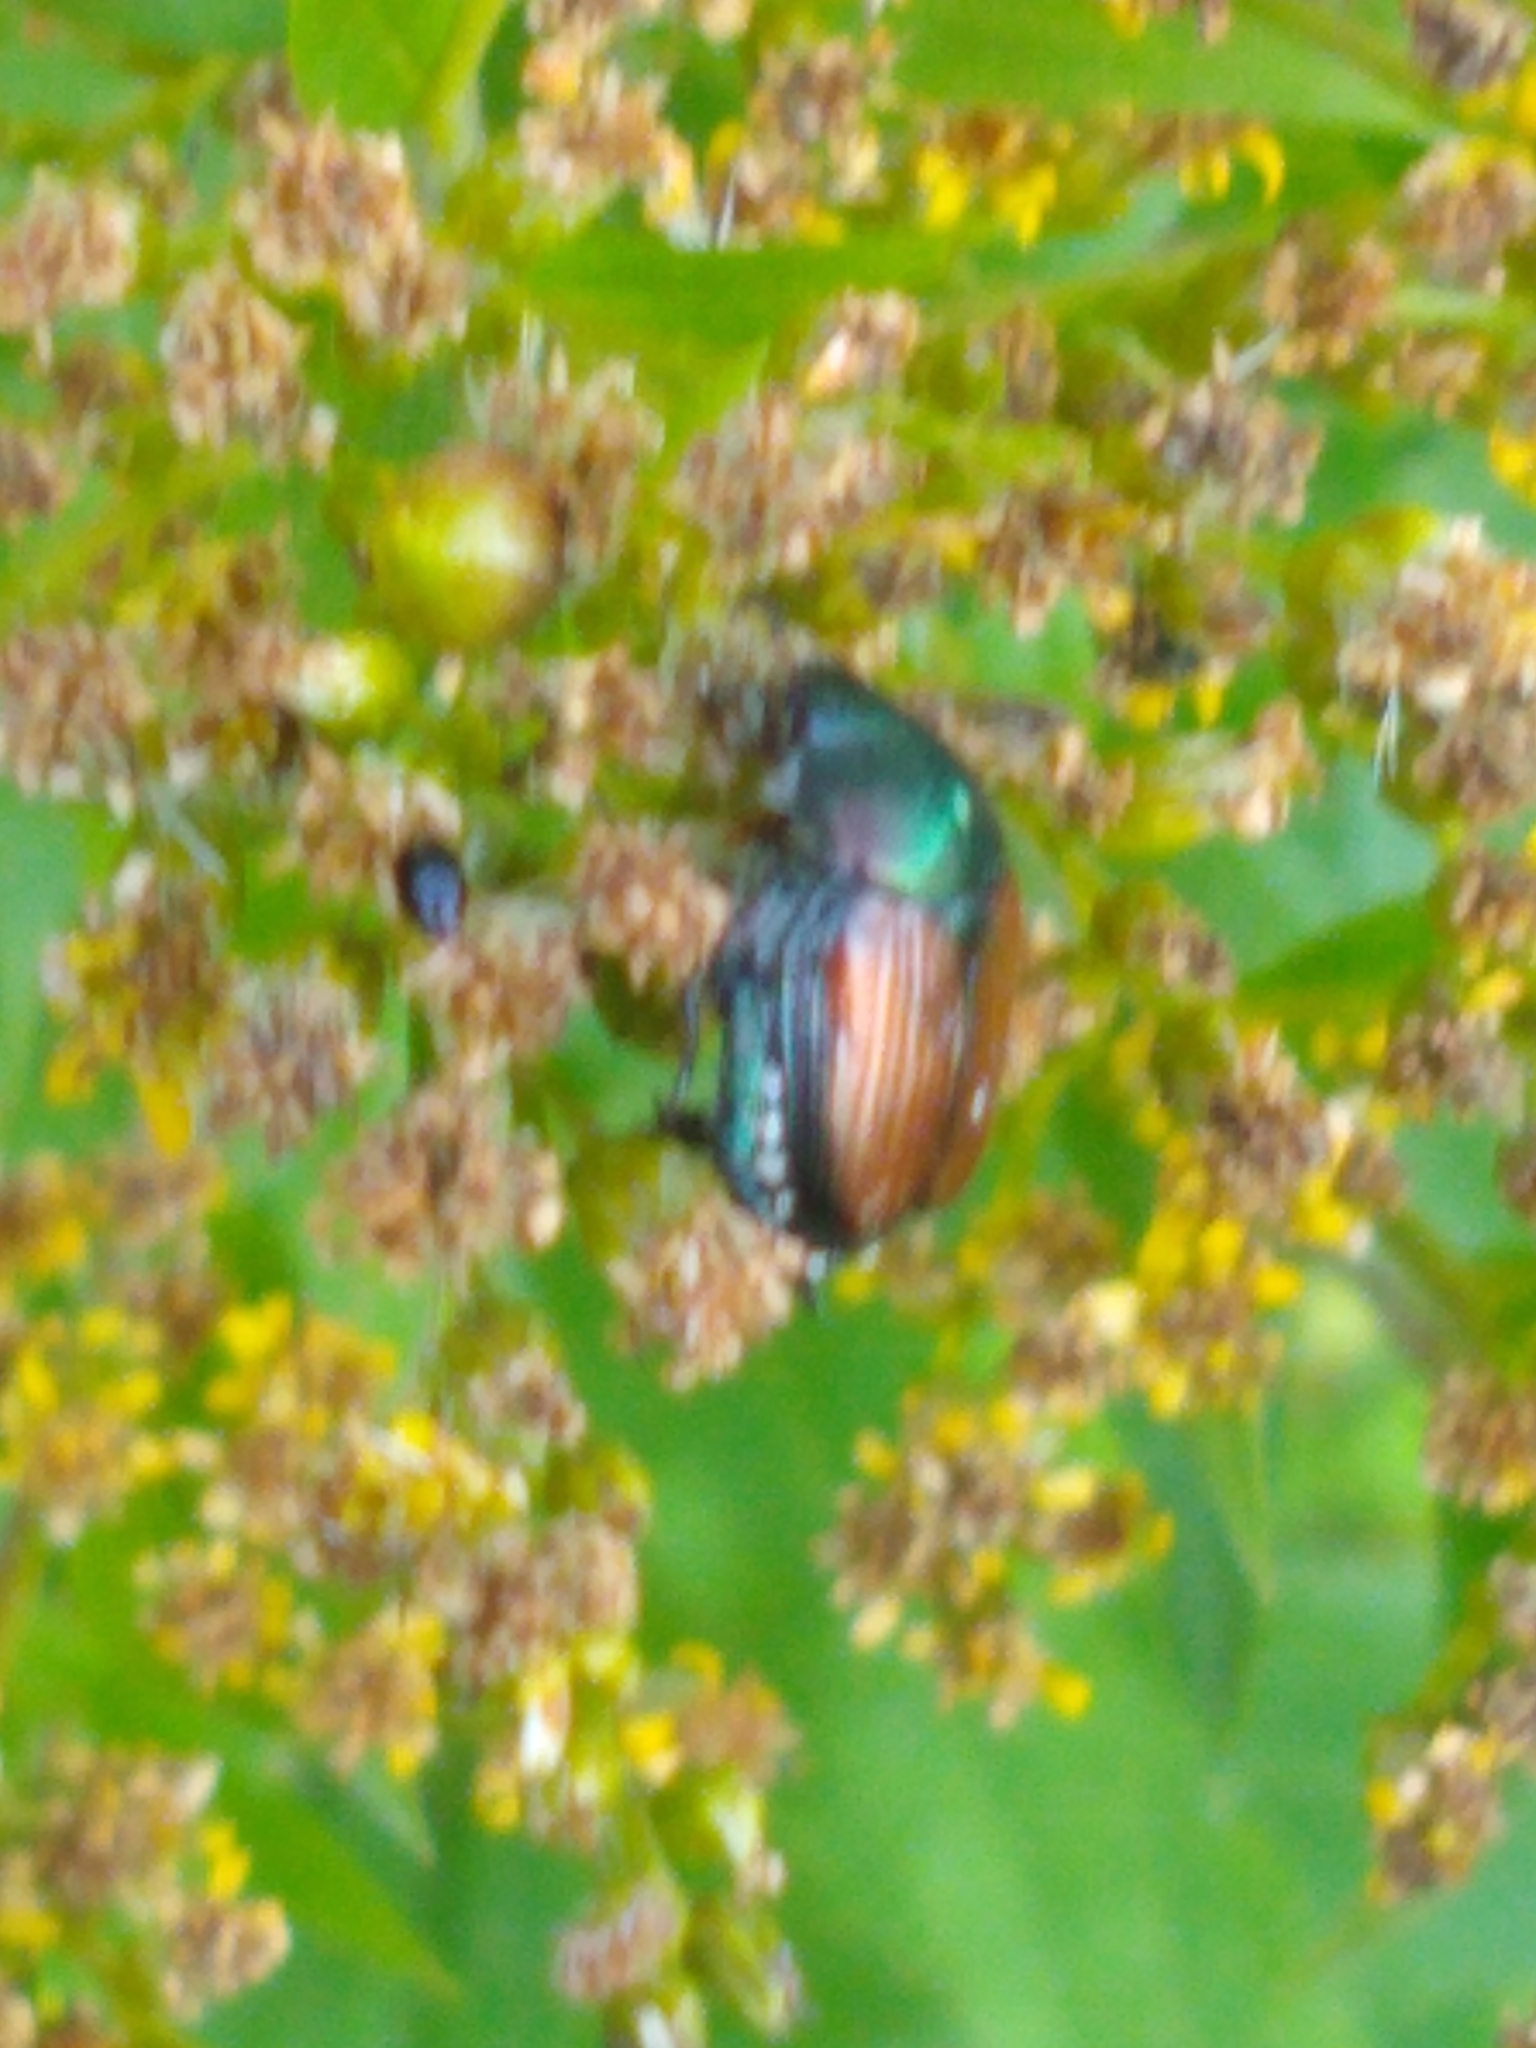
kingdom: Animalia
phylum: Arthropoda
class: Insecta
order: Coleoptera
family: Scarabaeidae
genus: Popillia
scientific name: Popillia japonica
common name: Japanese beetle
